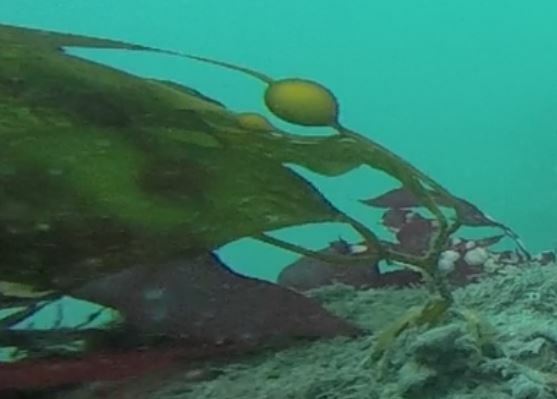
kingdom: Chromista
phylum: Ochrophyta
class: Phaeophyceae
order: Laminariales
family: Laminariaceae
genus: Macrocystis
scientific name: Macrocystis pyrifera
